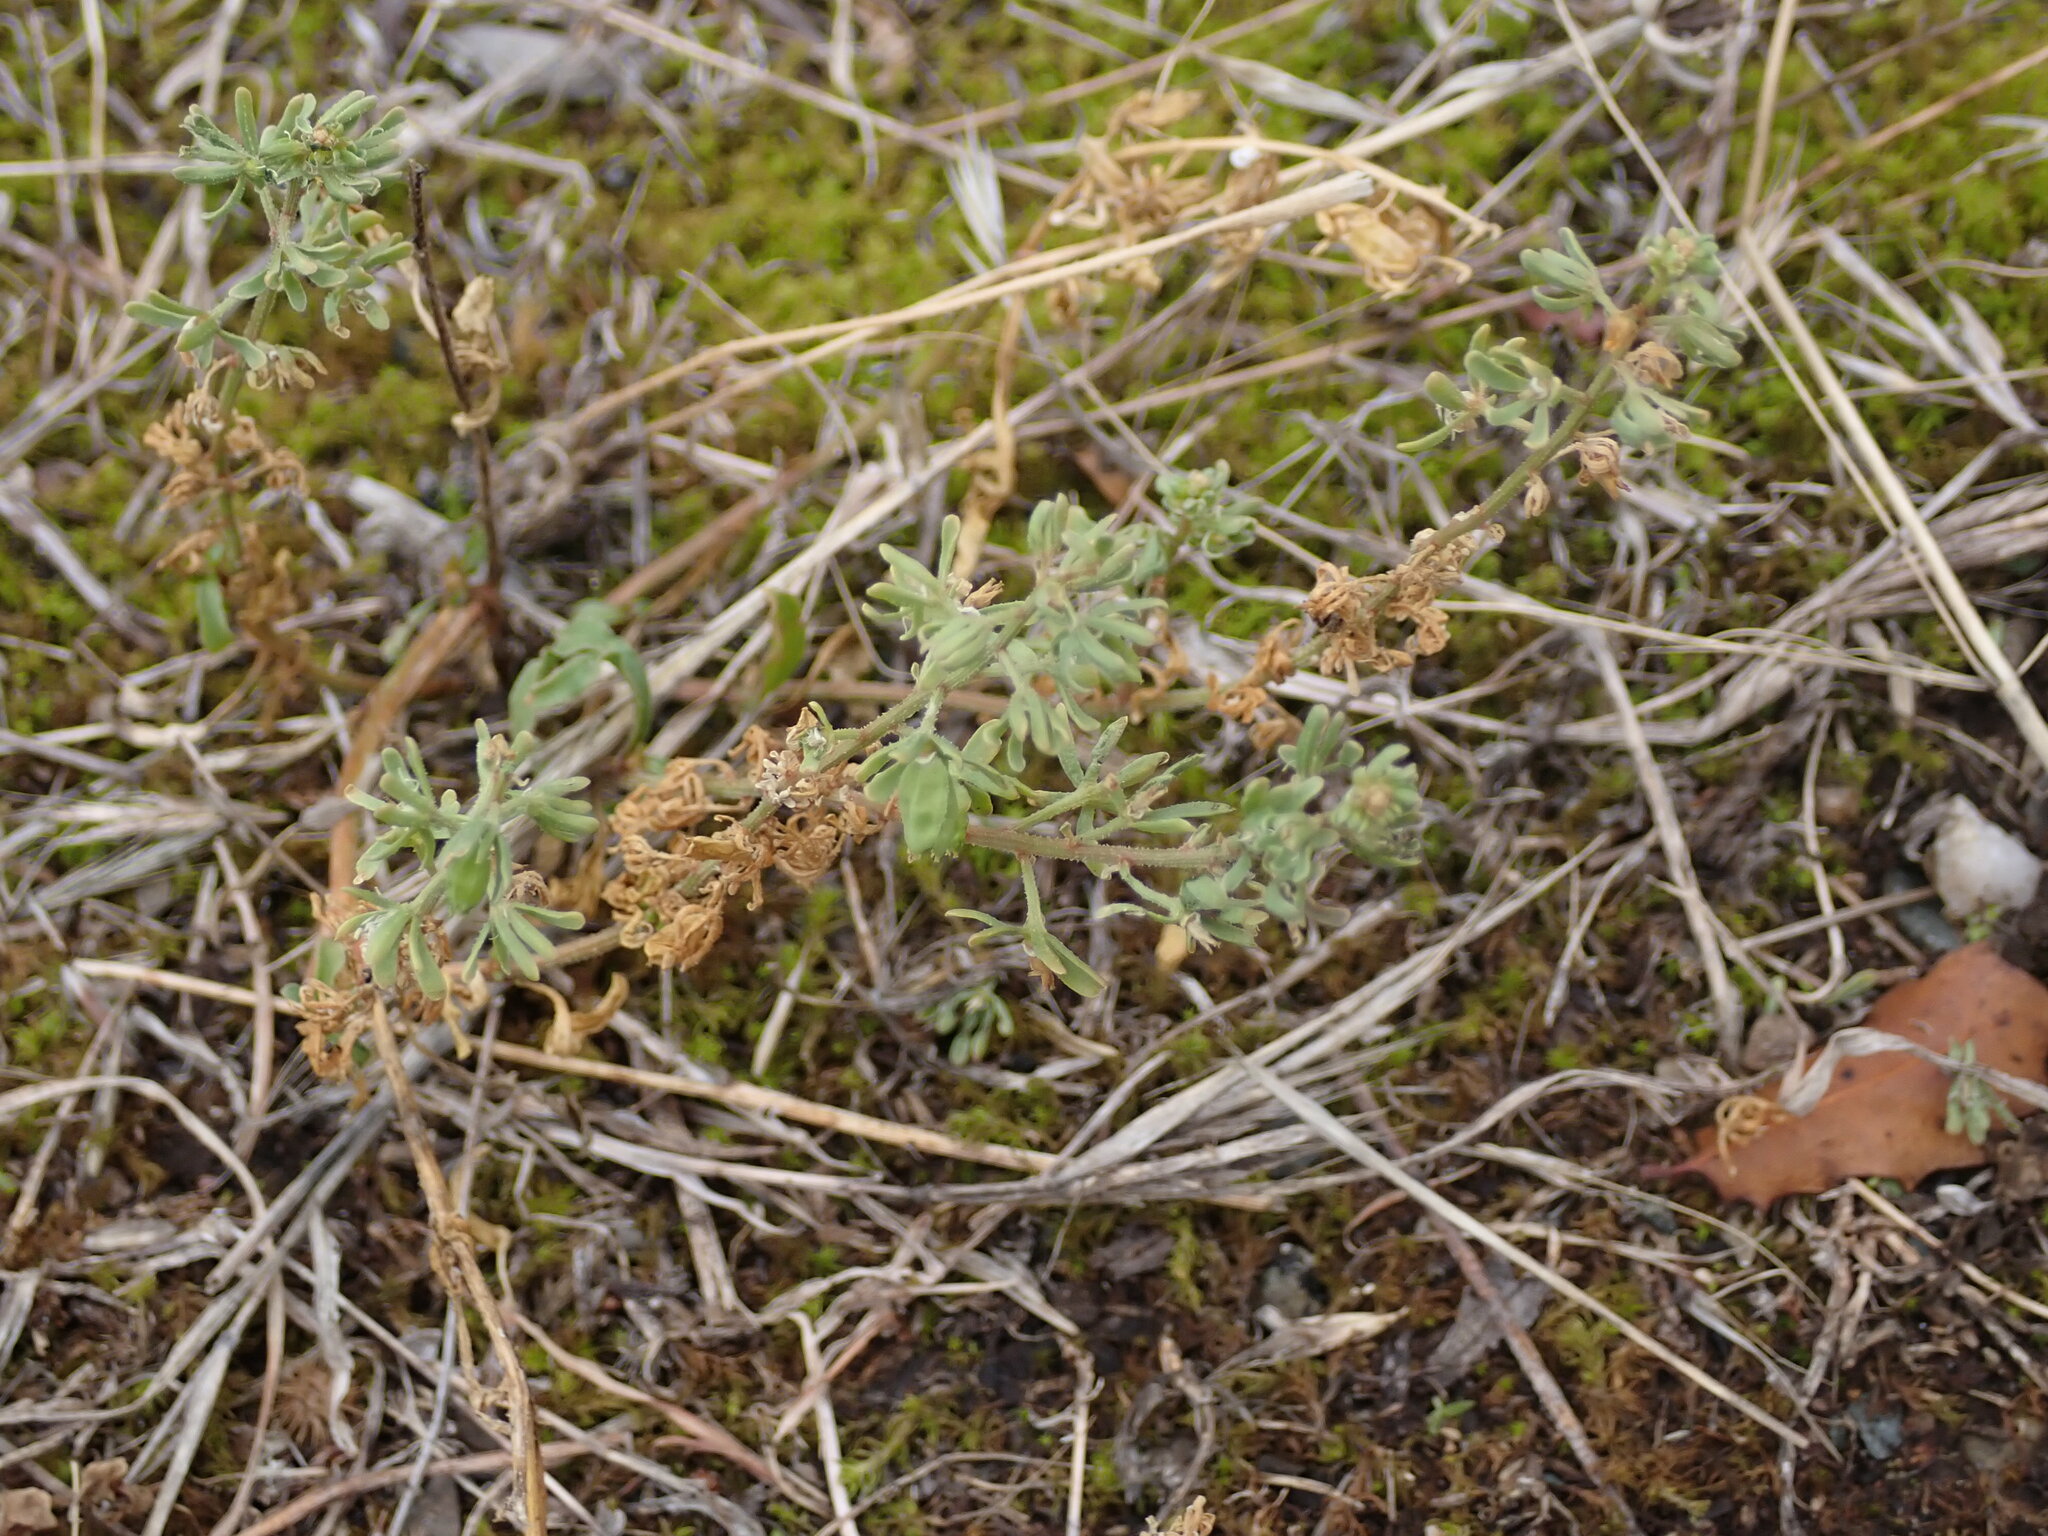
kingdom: Plantae
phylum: Tracheophyta
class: Magnoliopsida
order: Brassicales
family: Resedaceae
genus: Reseda
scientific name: Reseda phyteuma
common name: Corn mignonette
